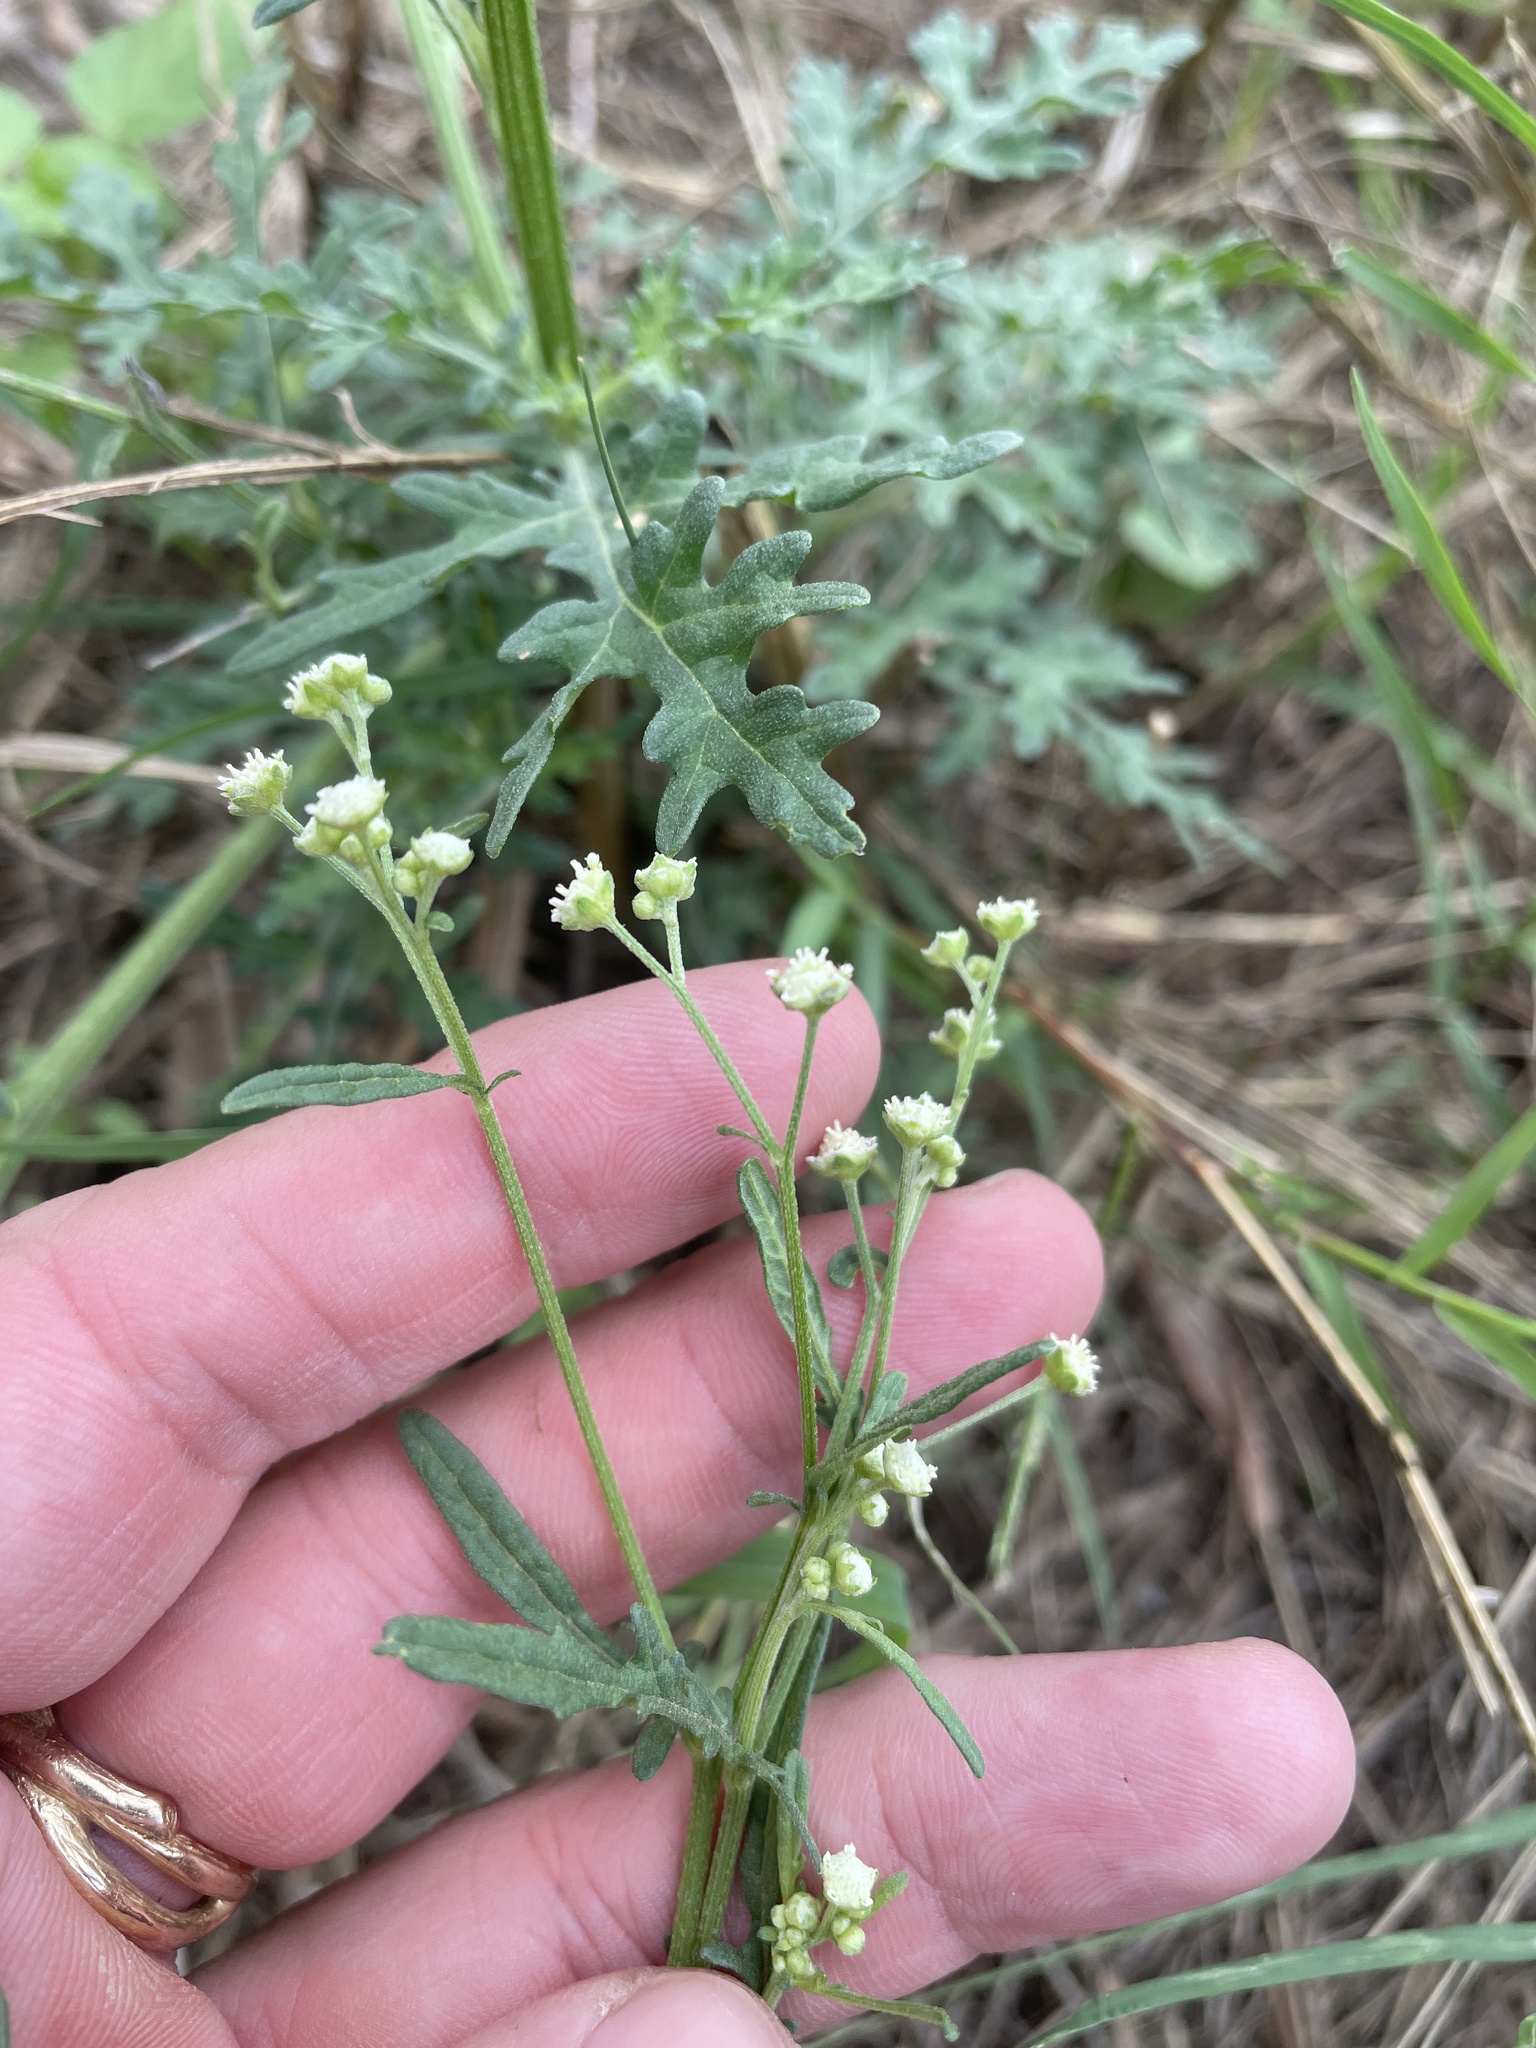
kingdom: Plantae
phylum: Tracheophyta
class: Magnoliopsida
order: Asterales
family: Asteraceae
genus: Parthenium
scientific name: Parthenium hysterophorus
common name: Santa maria feverfew
